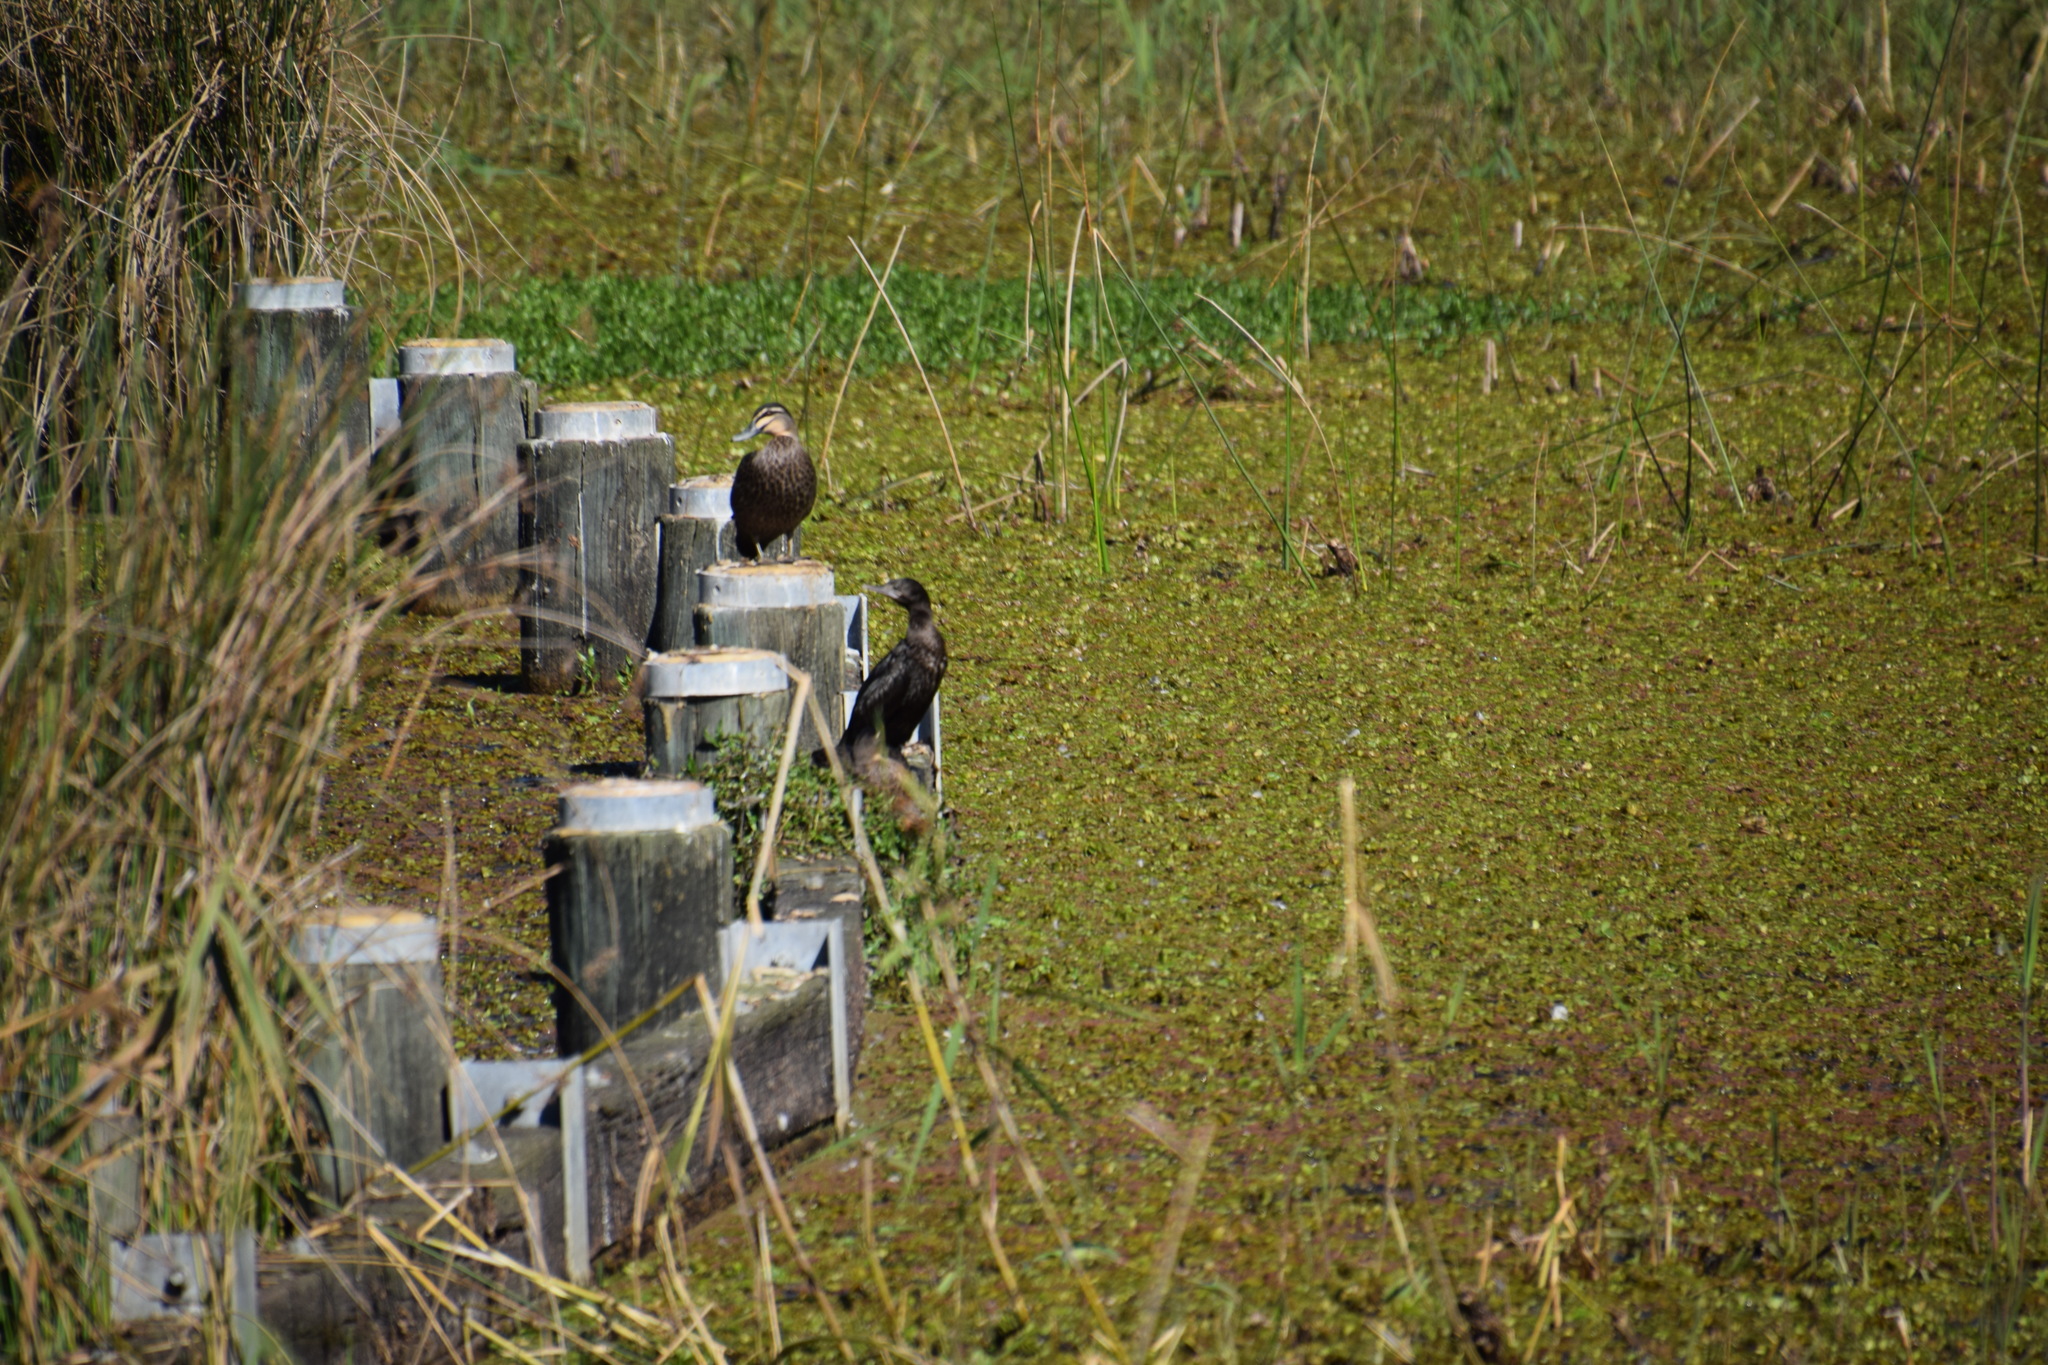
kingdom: Animalia
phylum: Chordata
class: Aves
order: Suliformes
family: Phalacrocoracidae
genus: Phalacrocorax
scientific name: Phalacrocorax sulcirostris
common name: Little black cormorant
